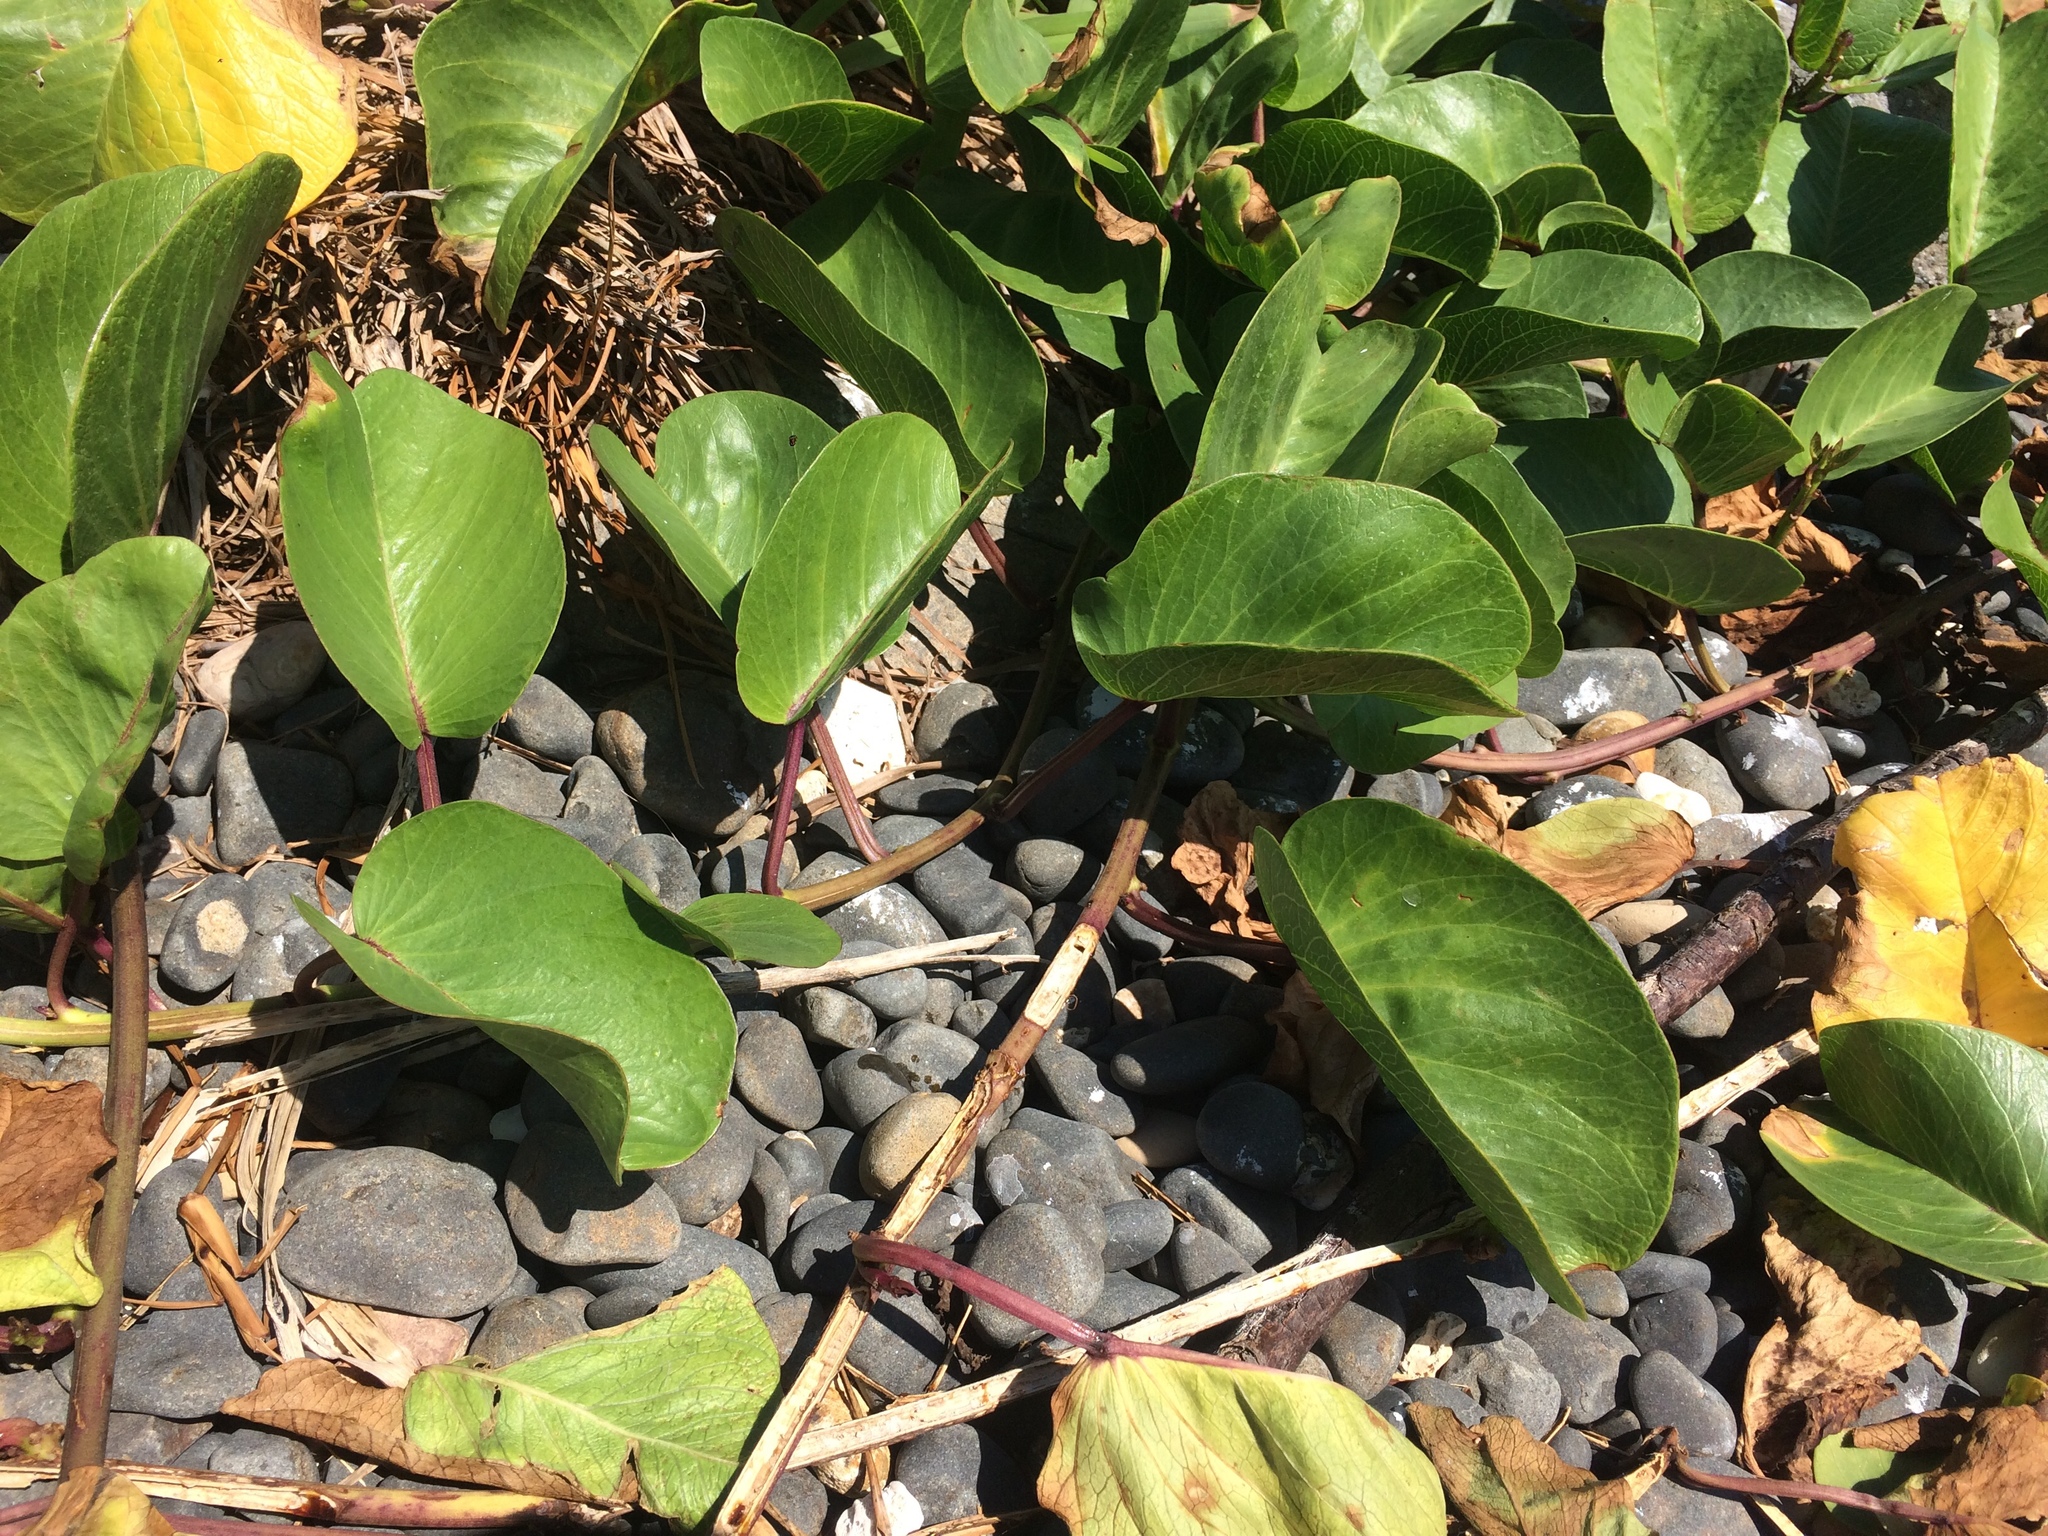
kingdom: Plantae
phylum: Tracheophyta
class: Magnoliopsida
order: Solanales
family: Convolvulaceae
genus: Ipomoea
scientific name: Ipomoea pes-caprae
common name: Beach morning glory
